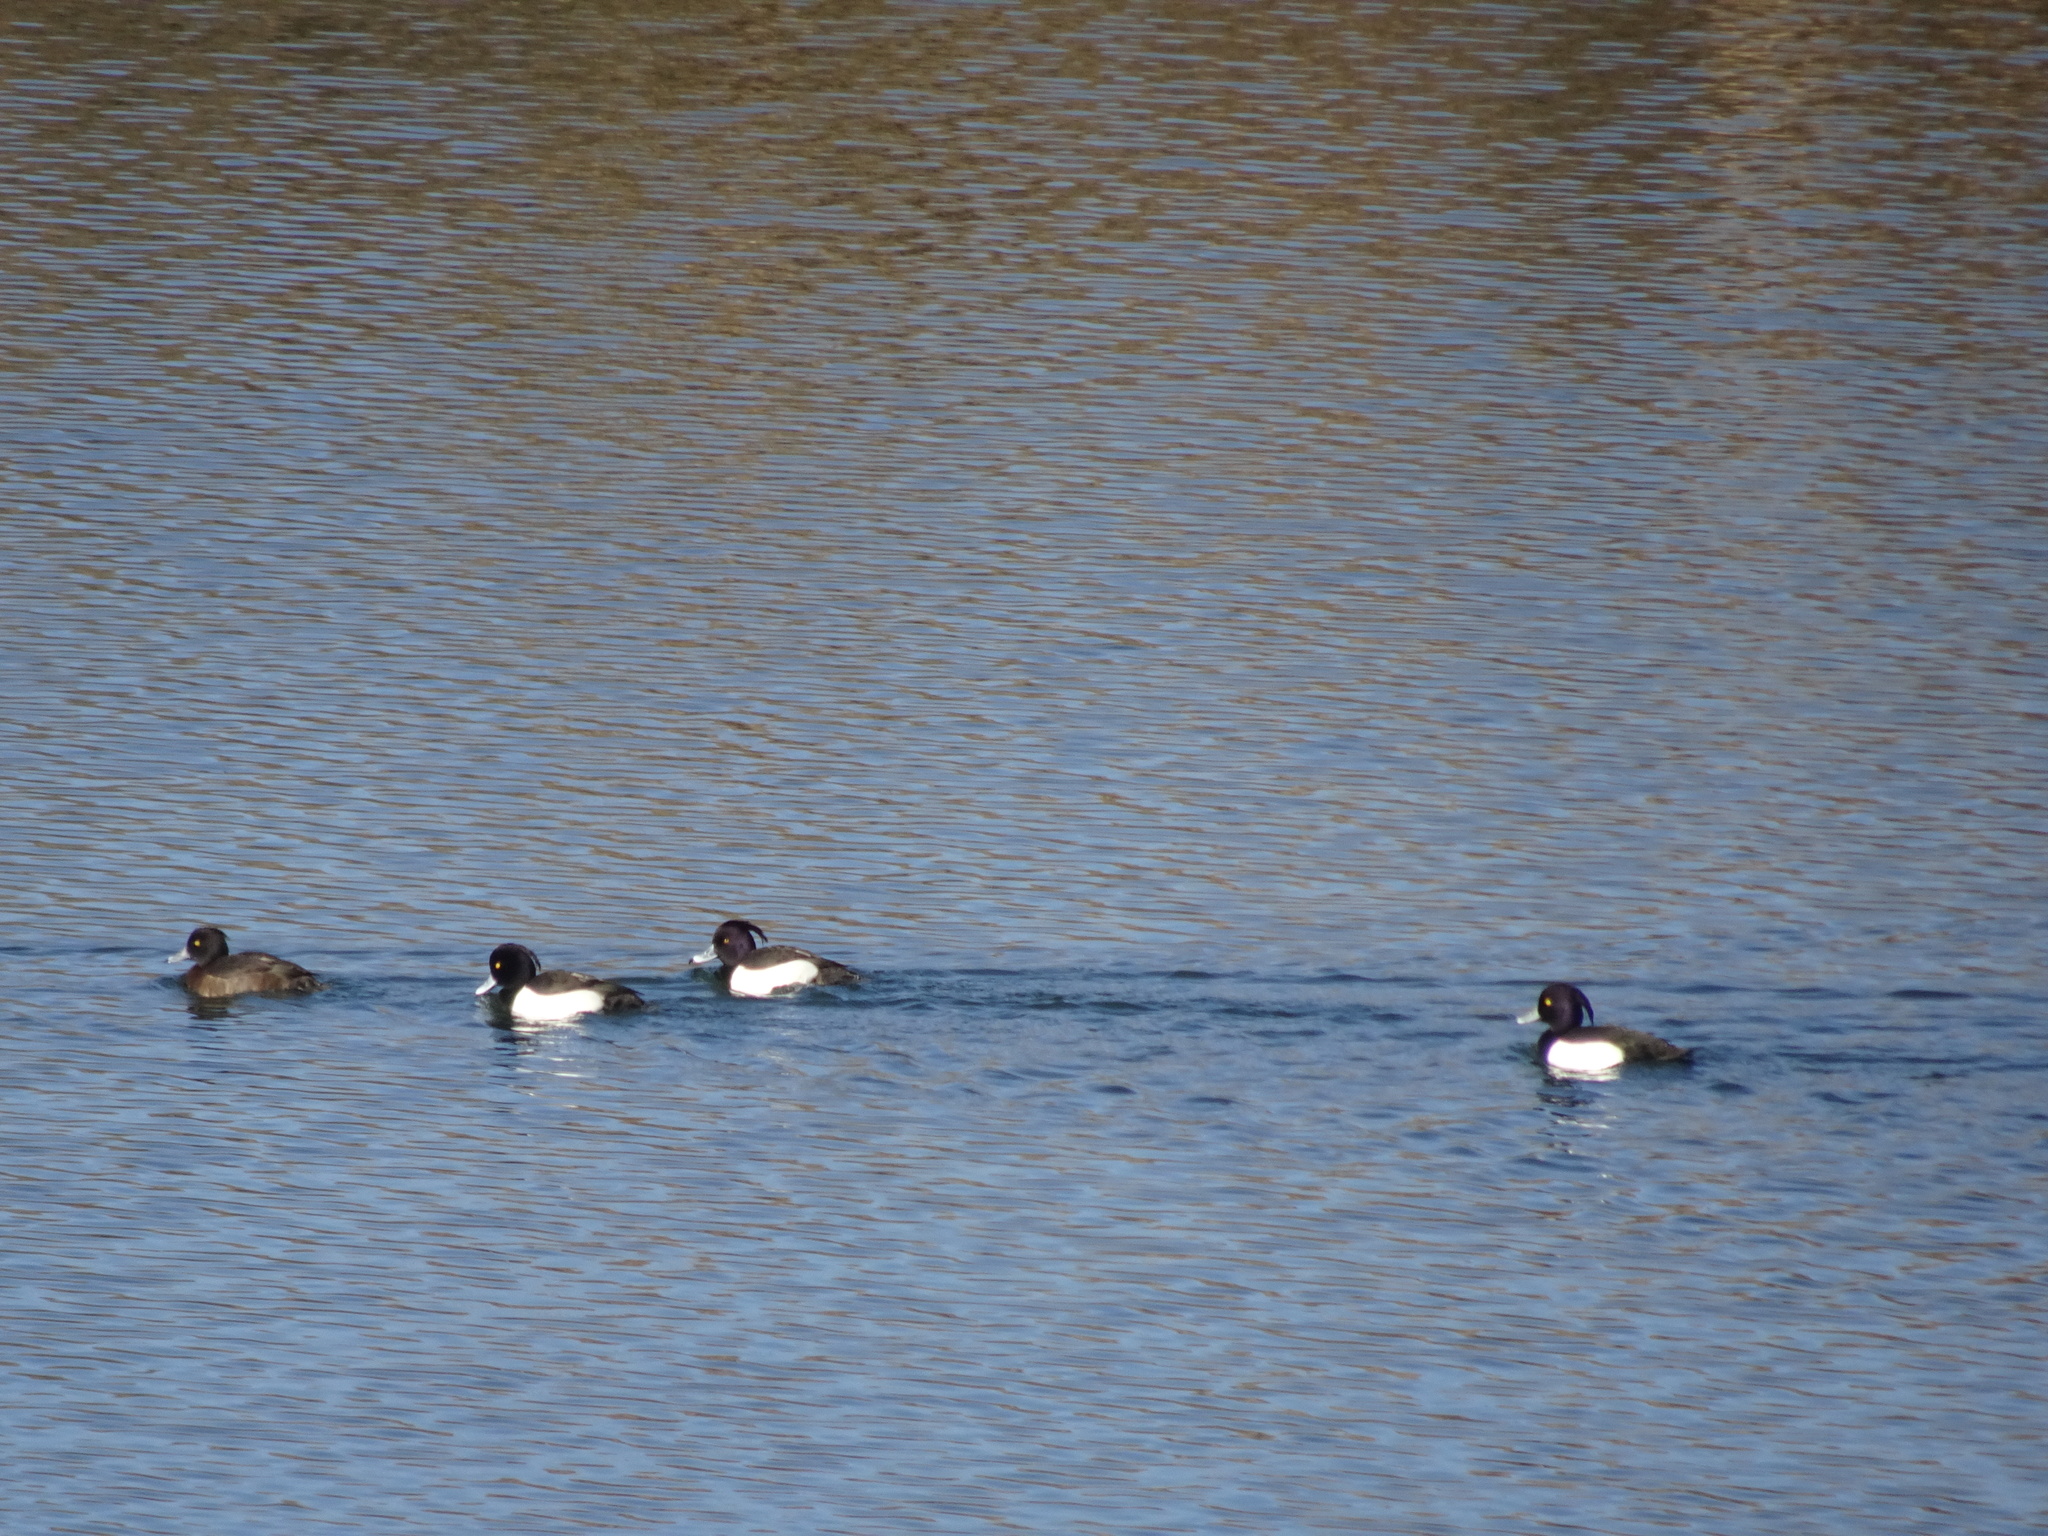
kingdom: Animalia
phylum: Chordata
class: Aves
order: Anseriformes
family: Anatidae
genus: Aythya
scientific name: Aythya fuligula
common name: Tufted duck
